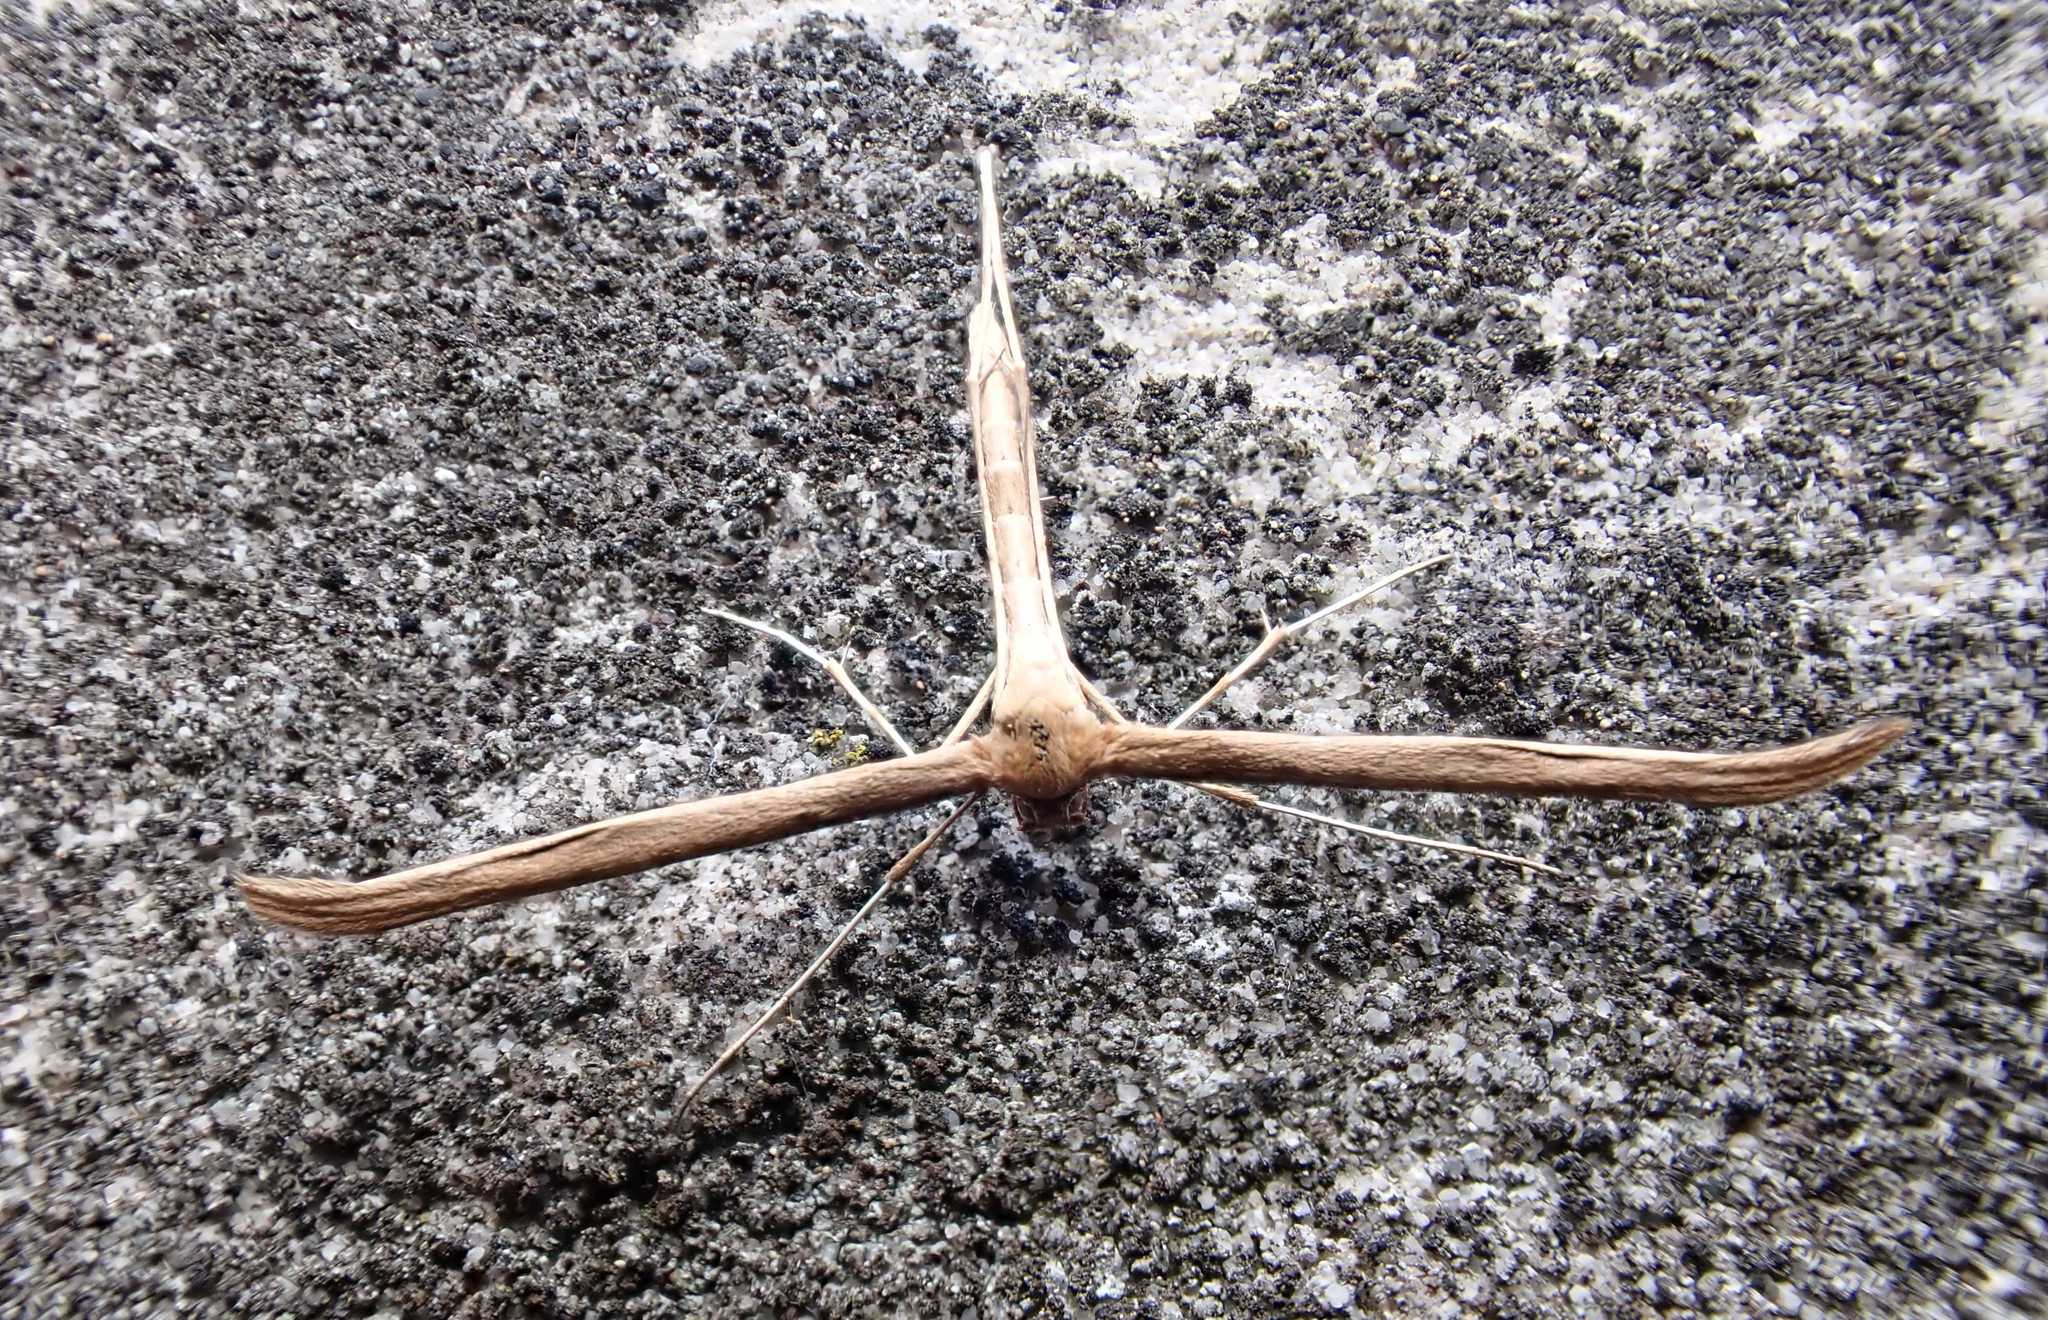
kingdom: Animalia
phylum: Arthropoda
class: Insecta
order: Lepidoptera
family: Pterophoridae
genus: Emmelina
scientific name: Emmelina monodactyla
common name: Common plume
